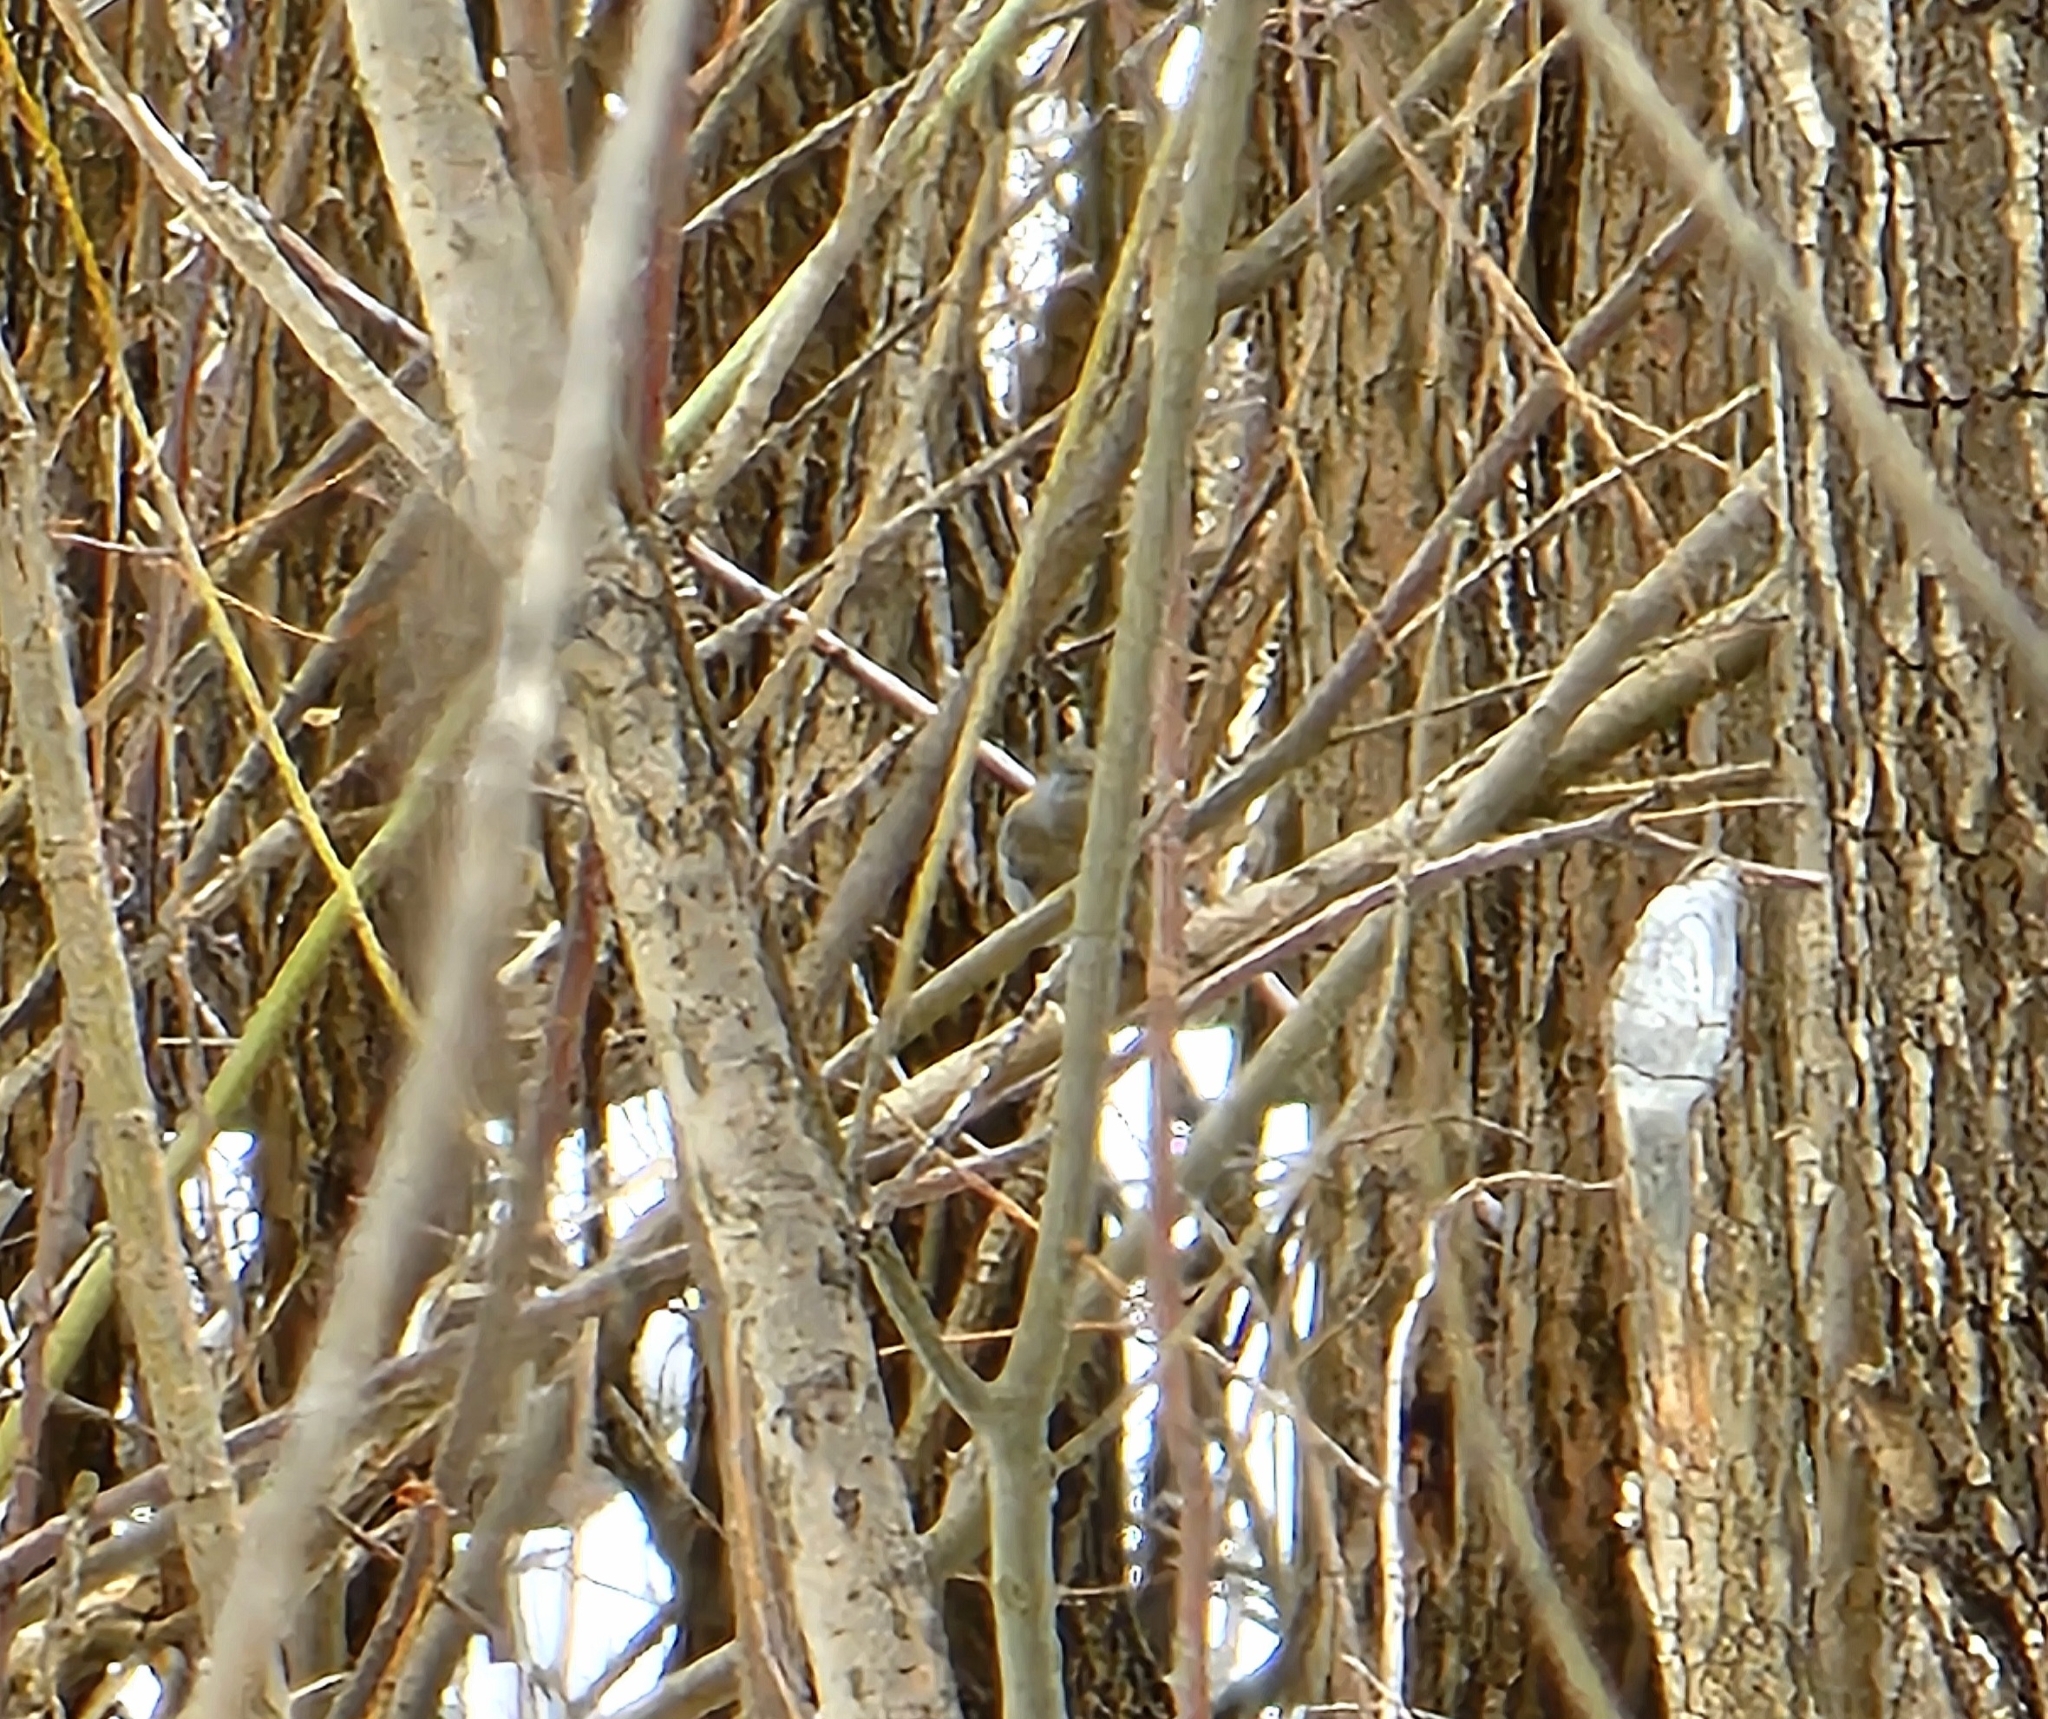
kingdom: Animalia
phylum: Chordata
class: Aves
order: Passeriformes
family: Muscicapidae
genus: Erithacus
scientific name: Erithacus rubecula
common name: European robin
